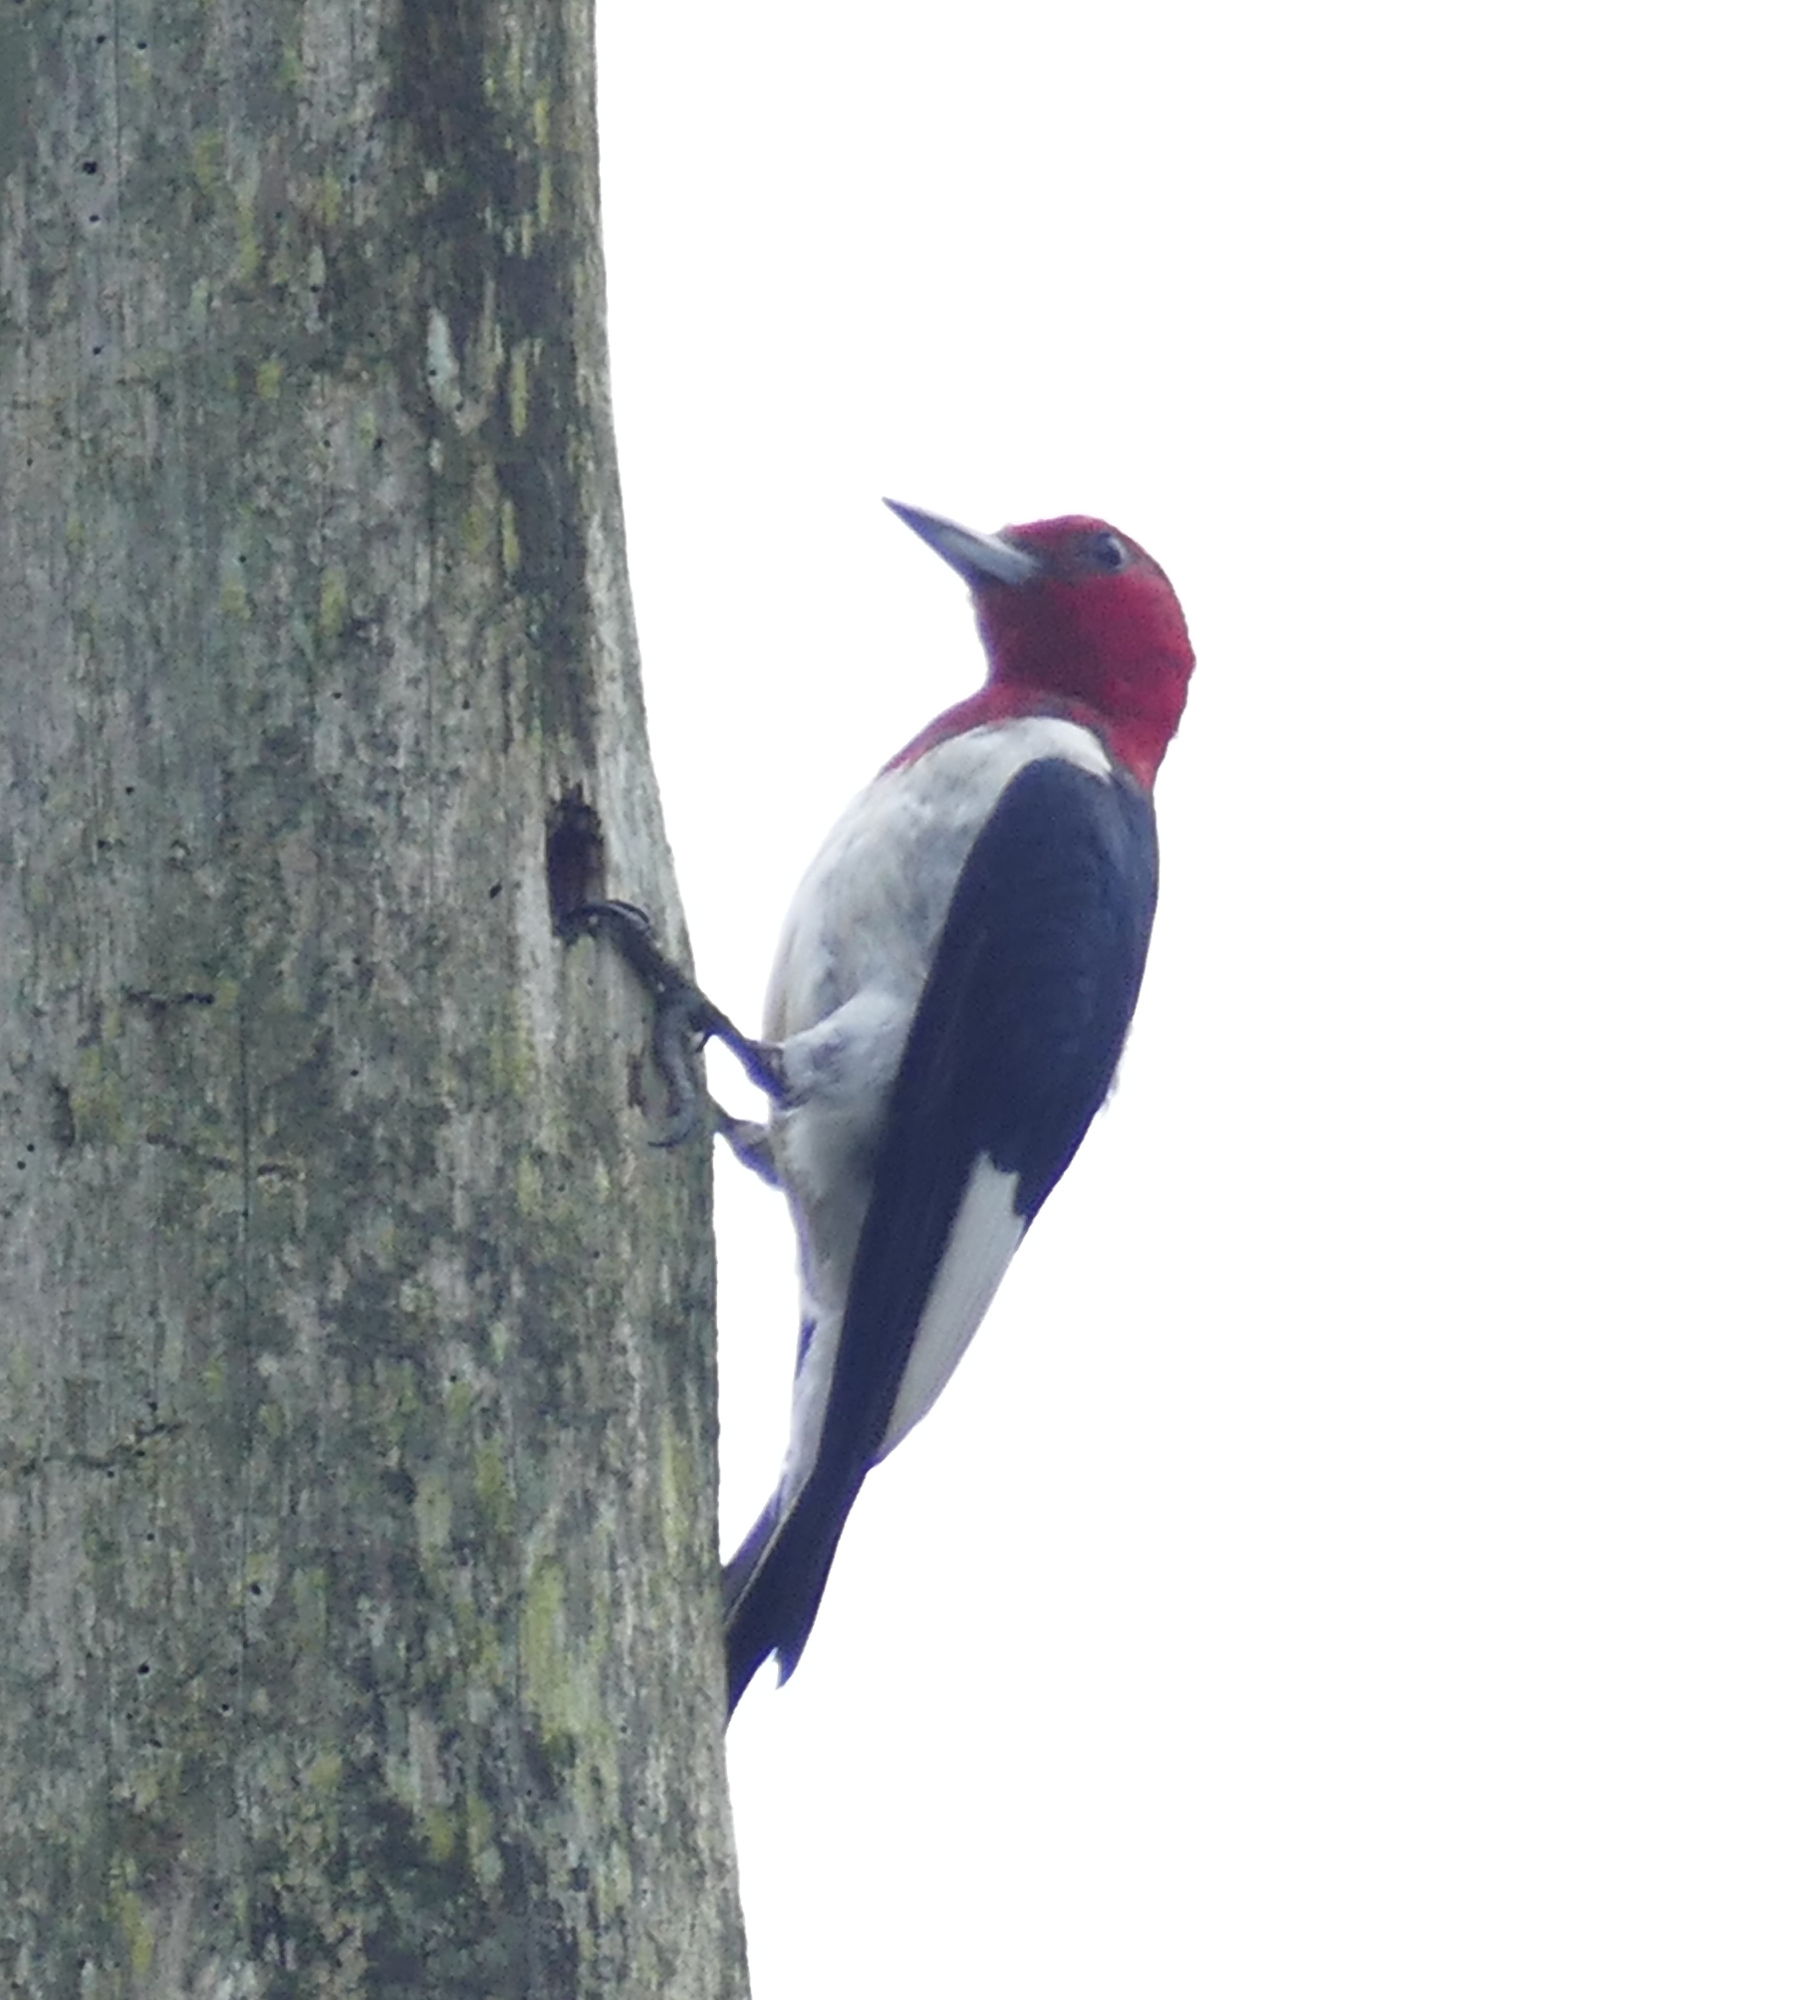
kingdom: Animalia
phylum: Chordata
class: Aves
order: Piciformes
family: Picidae
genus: Melanerpes
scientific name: Melanerpes erythrocephalus
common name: Red-headed woodpecker
